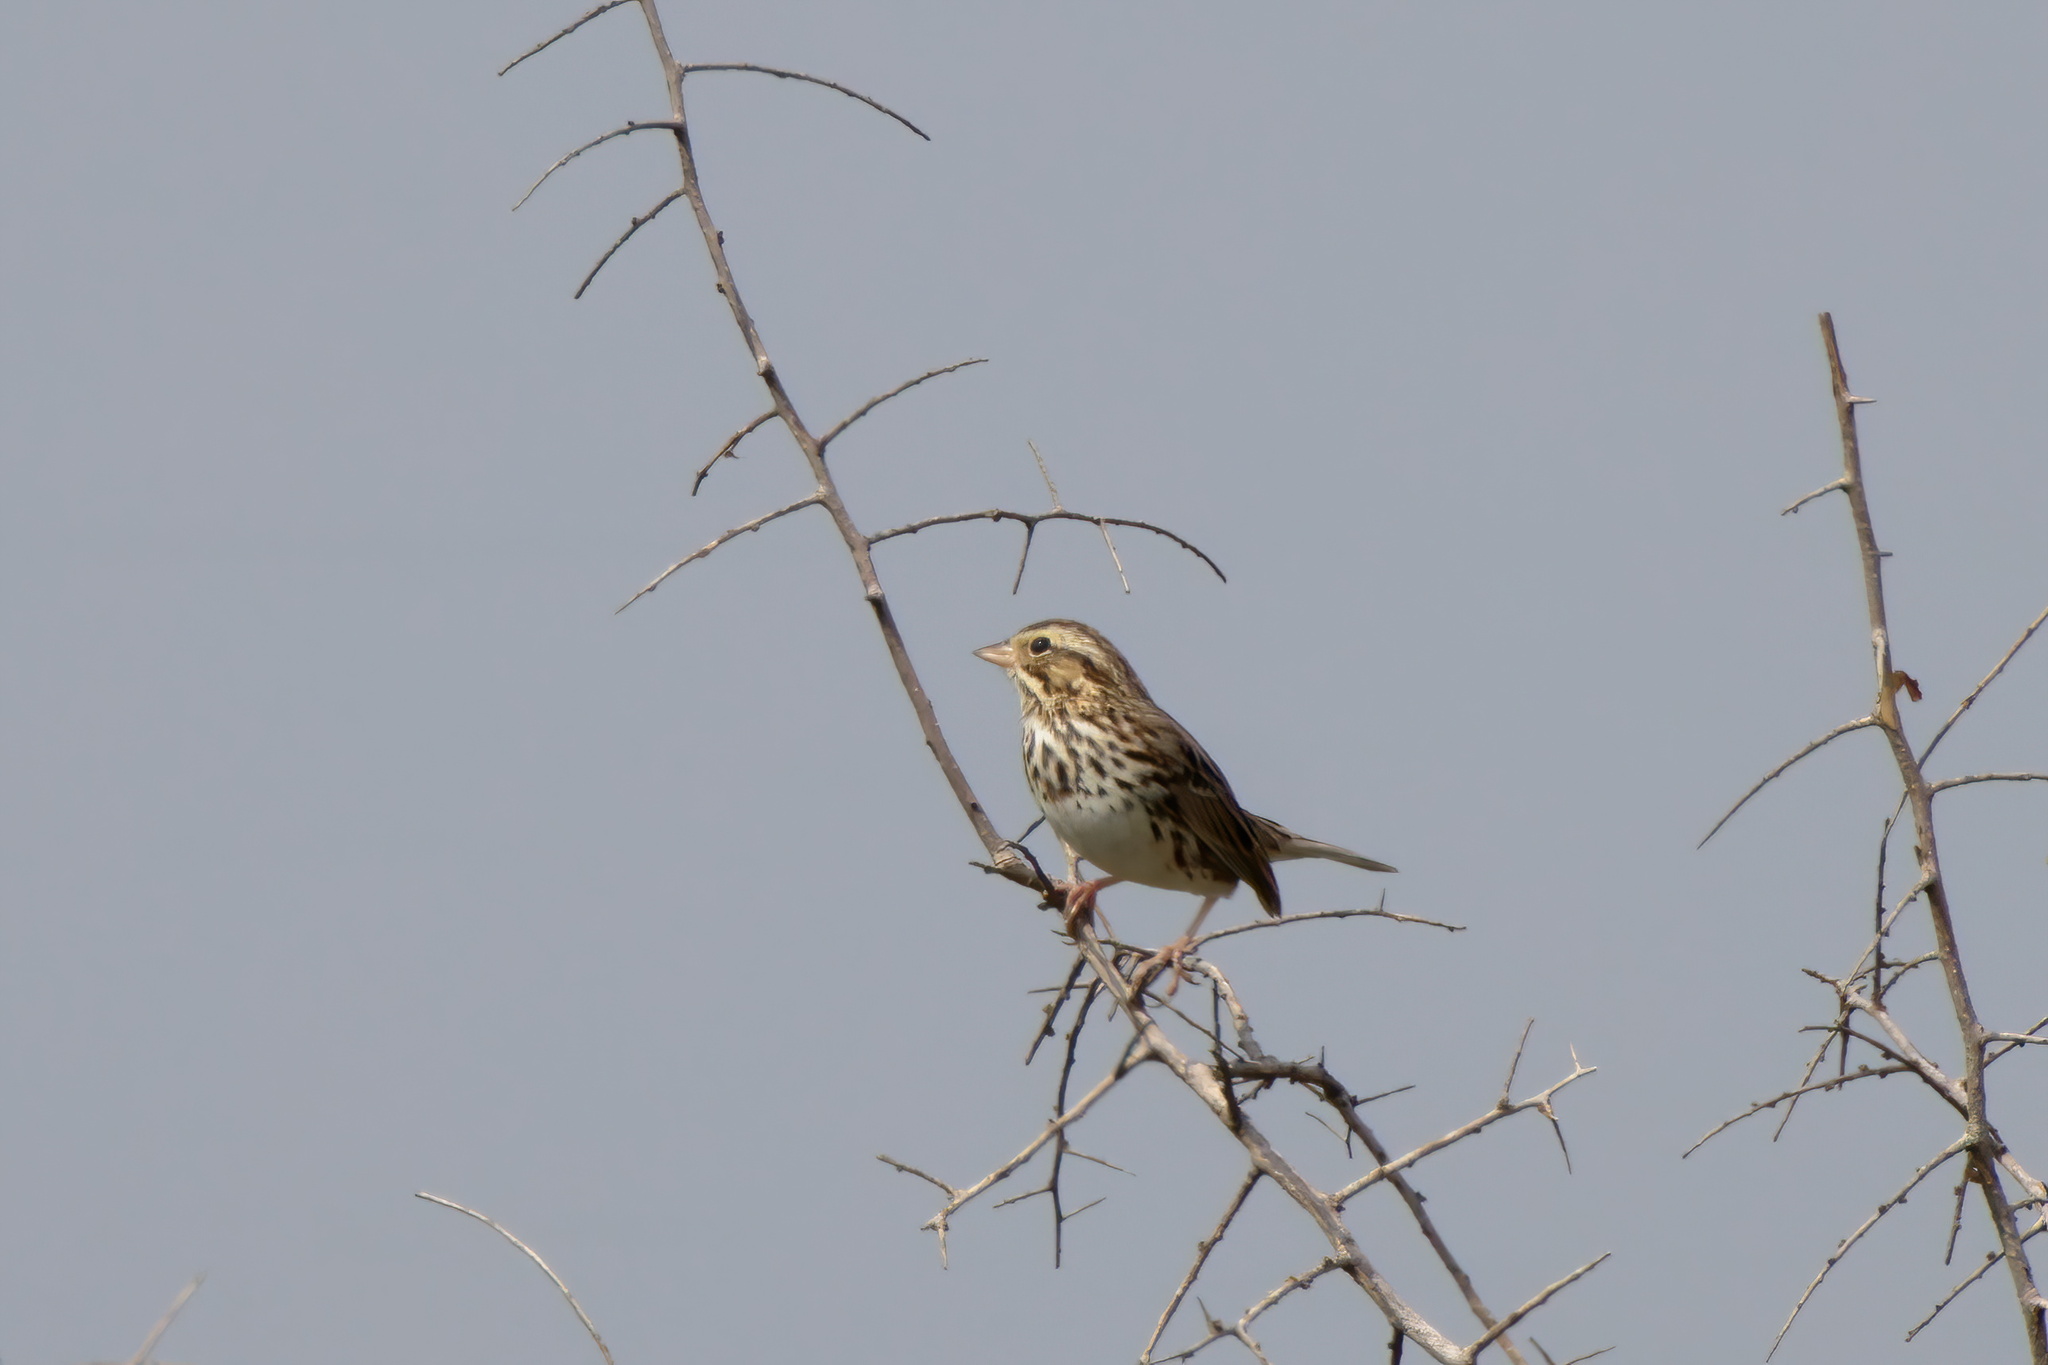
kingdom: Animalia
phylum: Chordata
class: Aves
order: Passeriformes
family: Passerellidae
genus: Passerculus
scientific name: Passerculus sandwichensis
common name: Savannah sparrow
